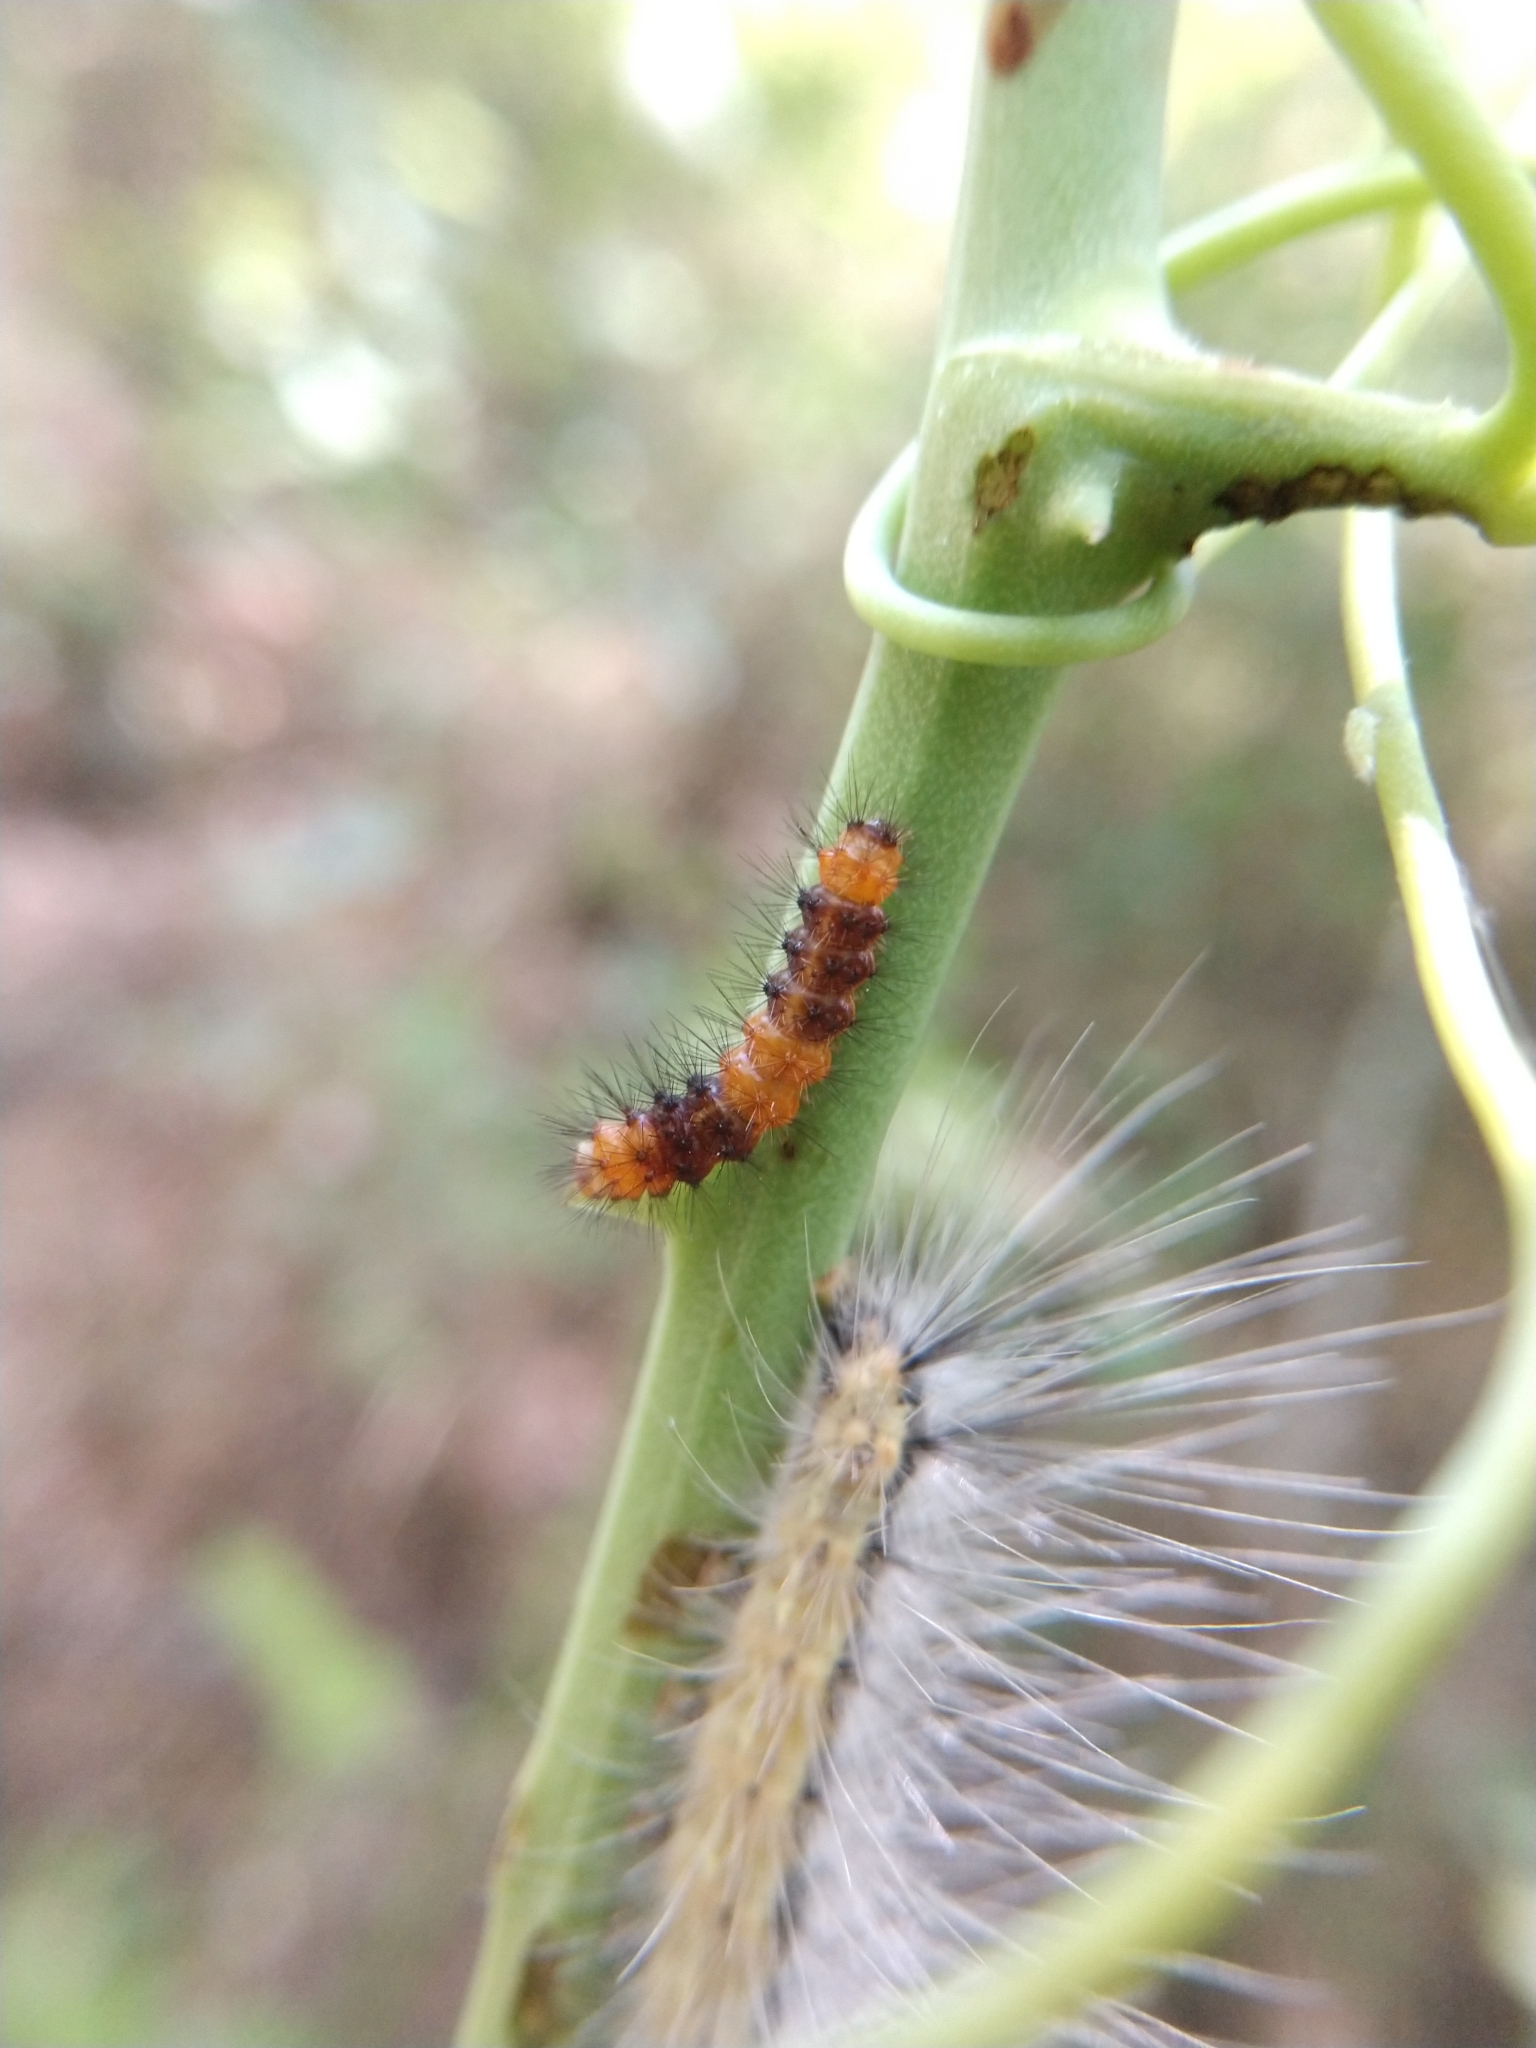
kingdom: Animalia
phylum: Arthropoda
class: Insecta
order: Lepidoptera
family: Erebidae
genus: Hypercompe
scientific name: Hypercompe scribonia
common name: Giant leopard moth
